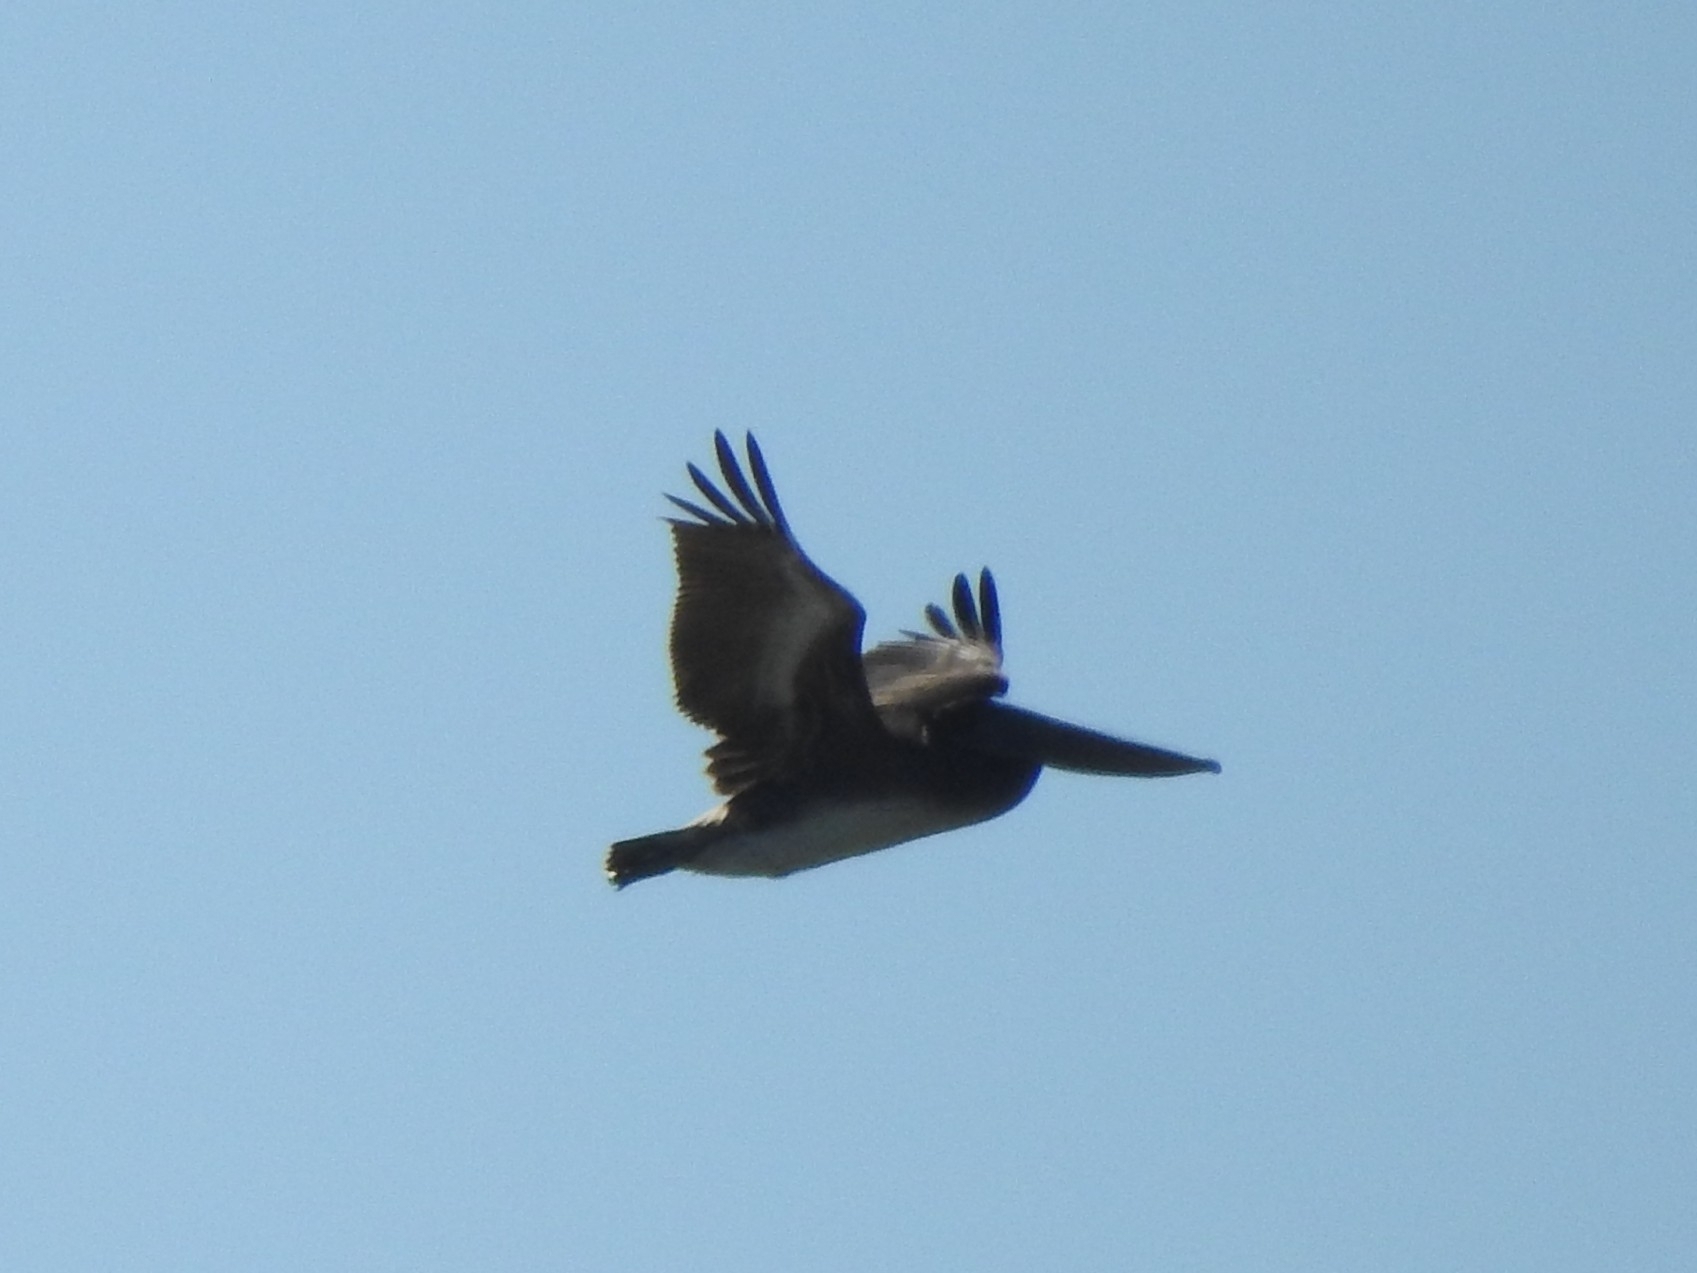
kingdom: Animalia
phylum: Chordata
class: Aves
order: Pelecaniformes
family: Pelecanidae
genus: Pelecanus
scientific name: Pelecanus occidentalis
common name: Brown pelican
